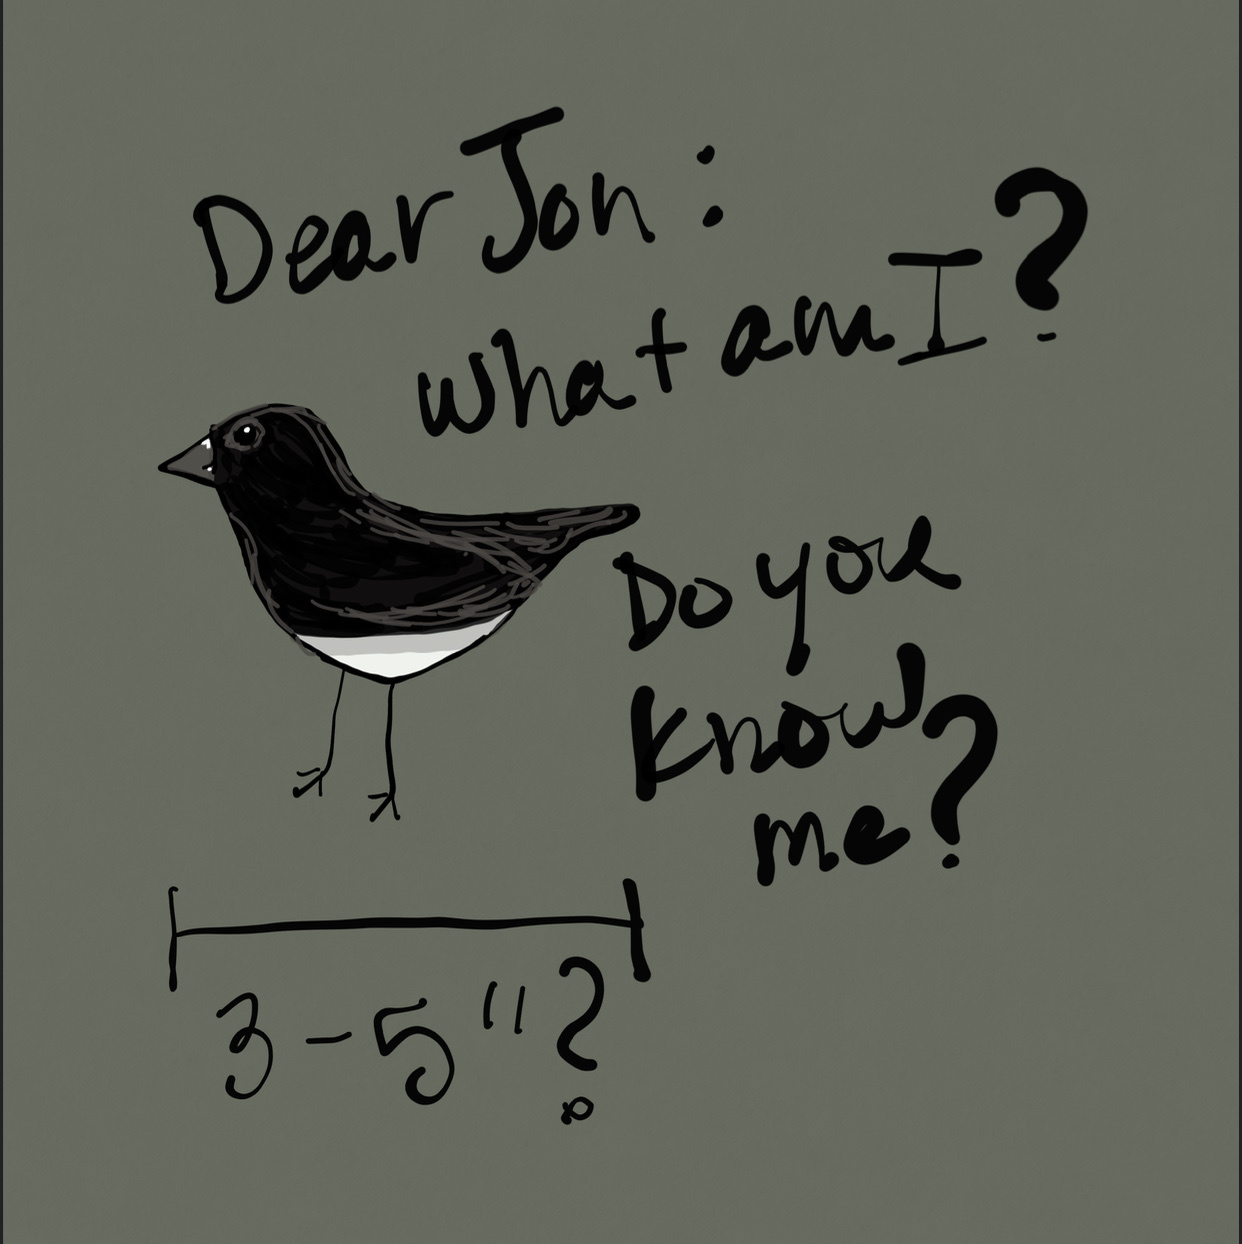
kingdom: Animalia
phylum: Chordata
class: Aves
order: Passeriformes
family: Passerellidae
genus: Junco
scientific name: Junco hyemalis
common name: Dark-eyed junco
